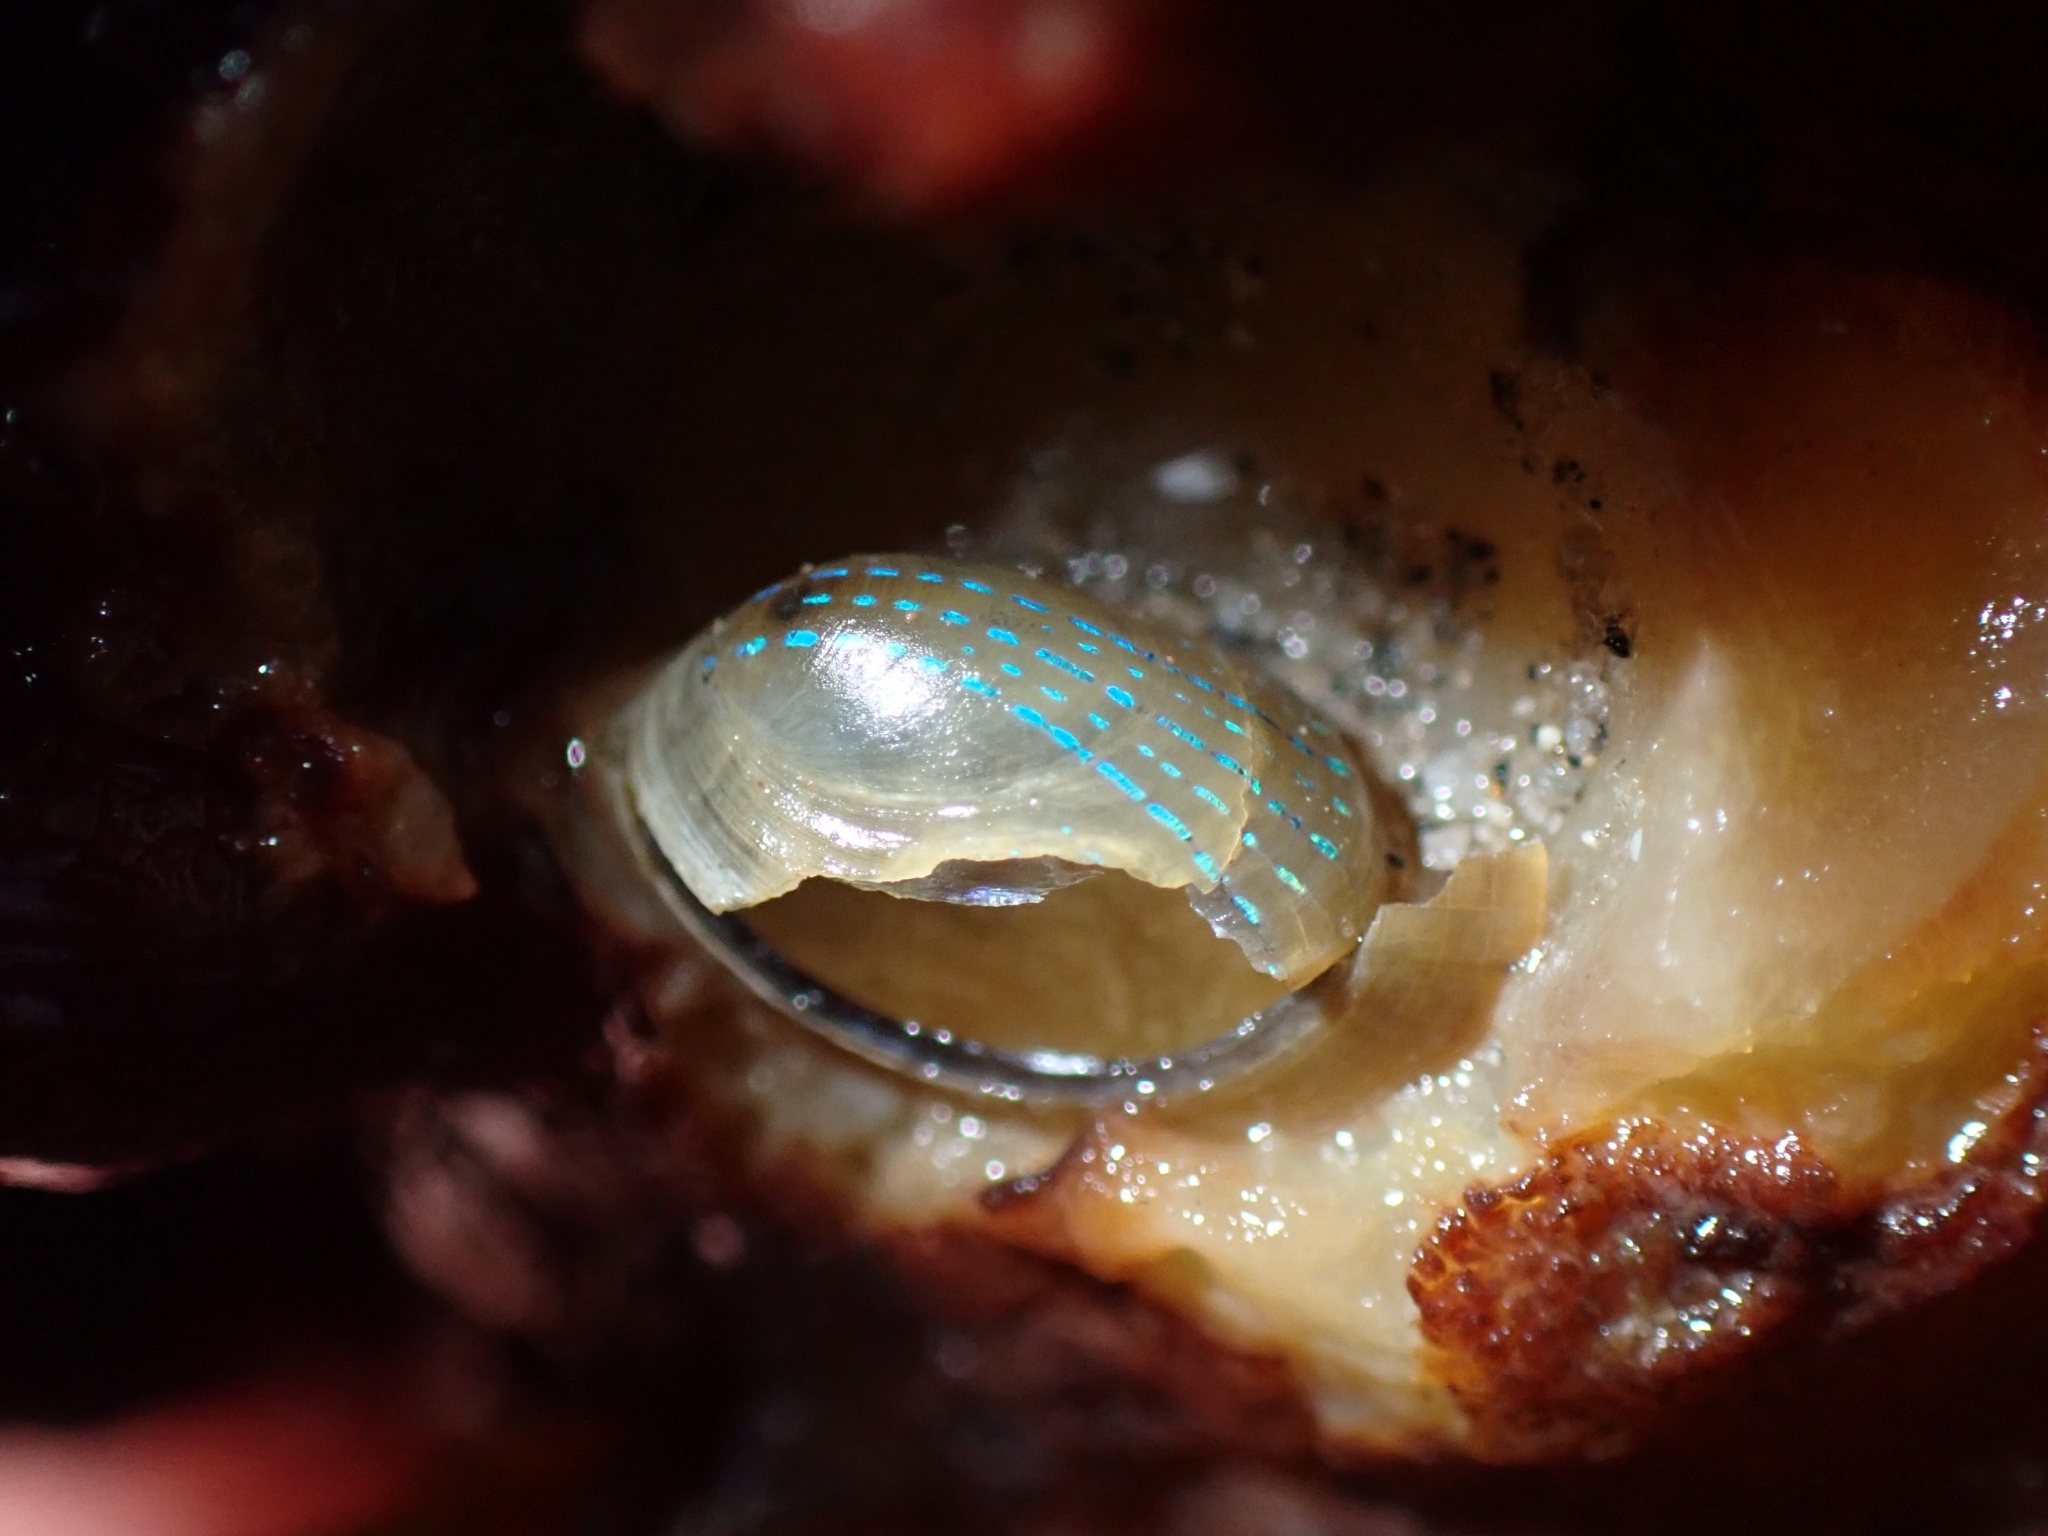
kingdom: Animalia
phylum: Mollusca
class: Gastropoda
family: Patellidae
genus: Patella
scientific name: Patella pellucida
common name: Blue-rayed limpet
